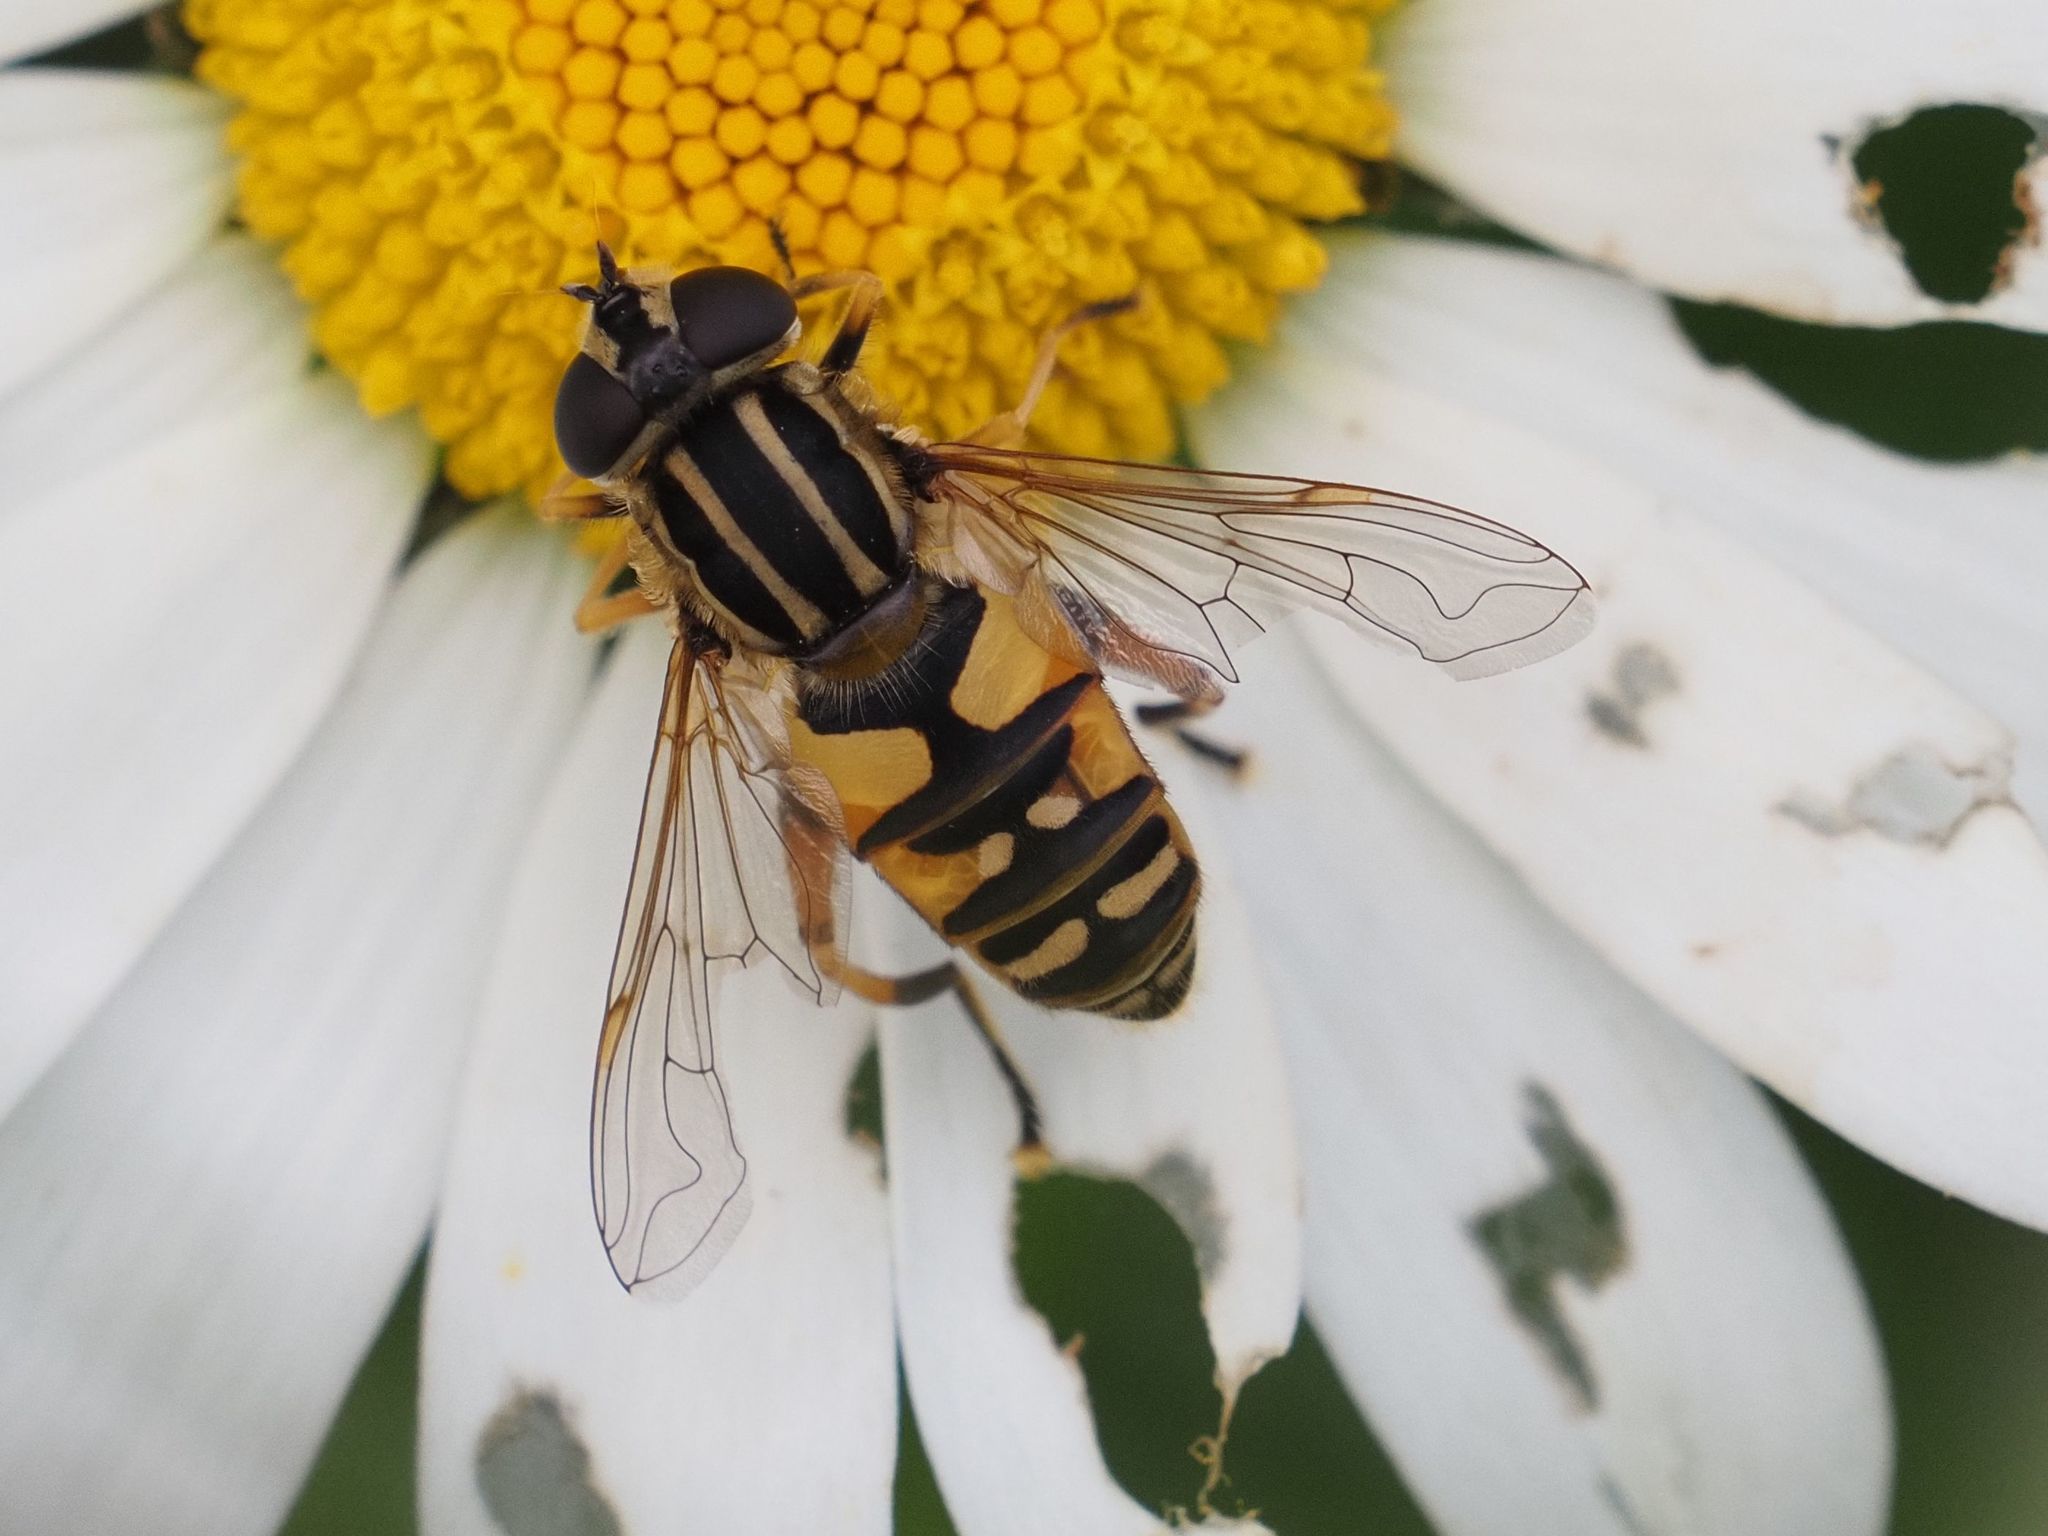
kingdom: Animalia
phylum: Arthropoda
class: Insecta
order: Diptera
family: Syrphidae
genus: Helophilus
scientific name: Helophilus pendulus
